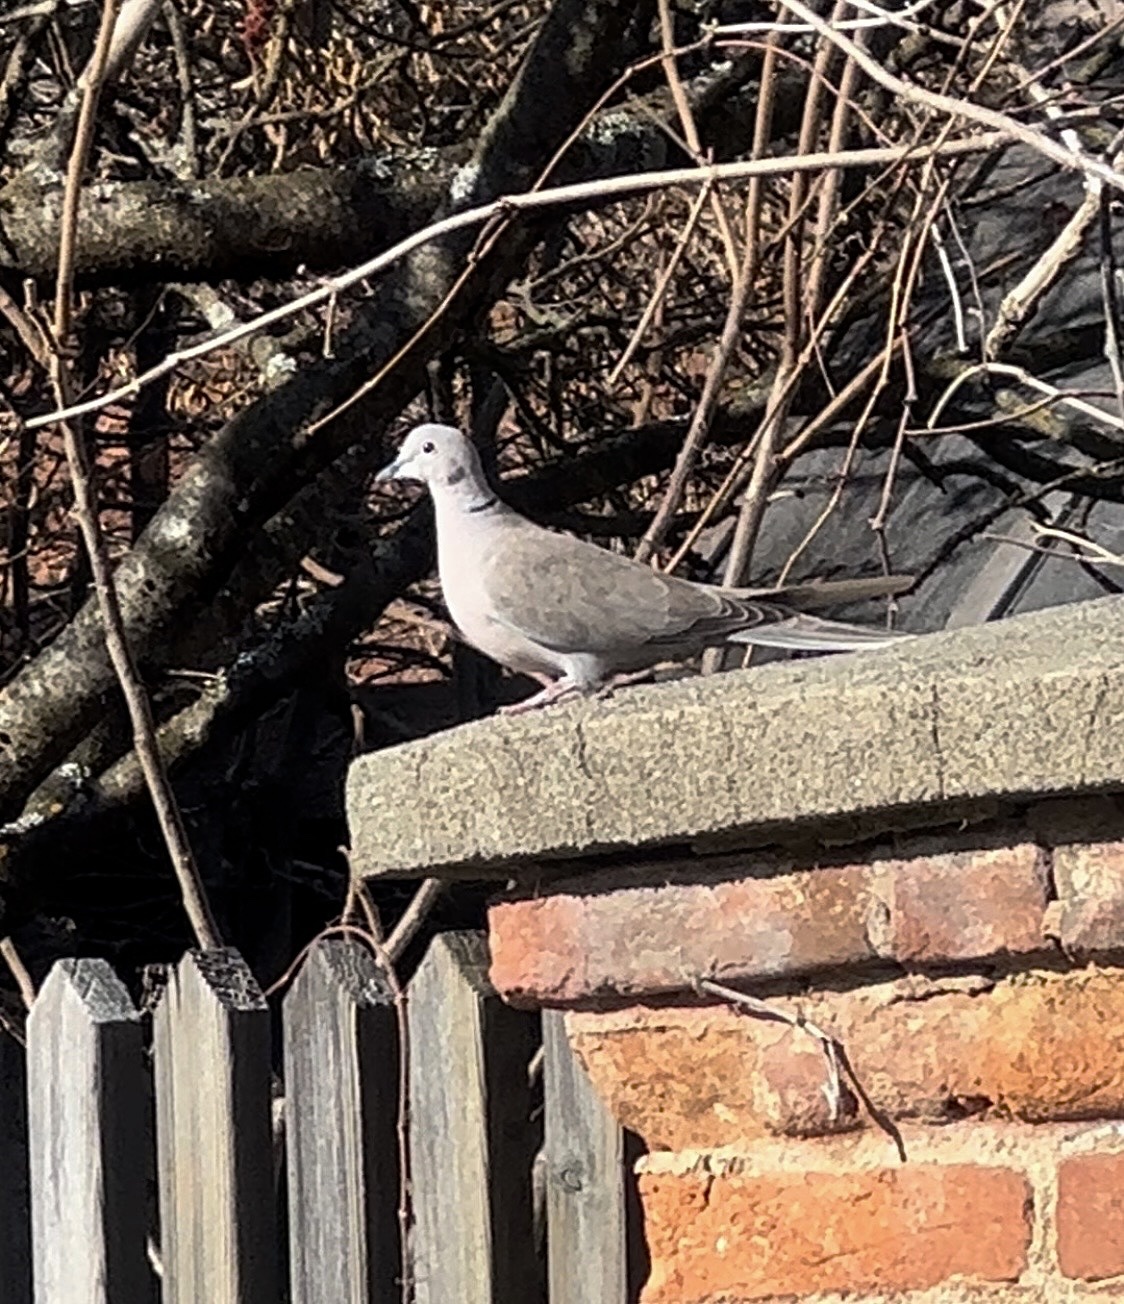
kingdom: Animalia
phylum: Chordata
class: Aves
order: Columbiformes
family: Columbidae
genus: Streptopelia
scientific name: Streptopelia decaocto
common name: Eurasian collared dove
